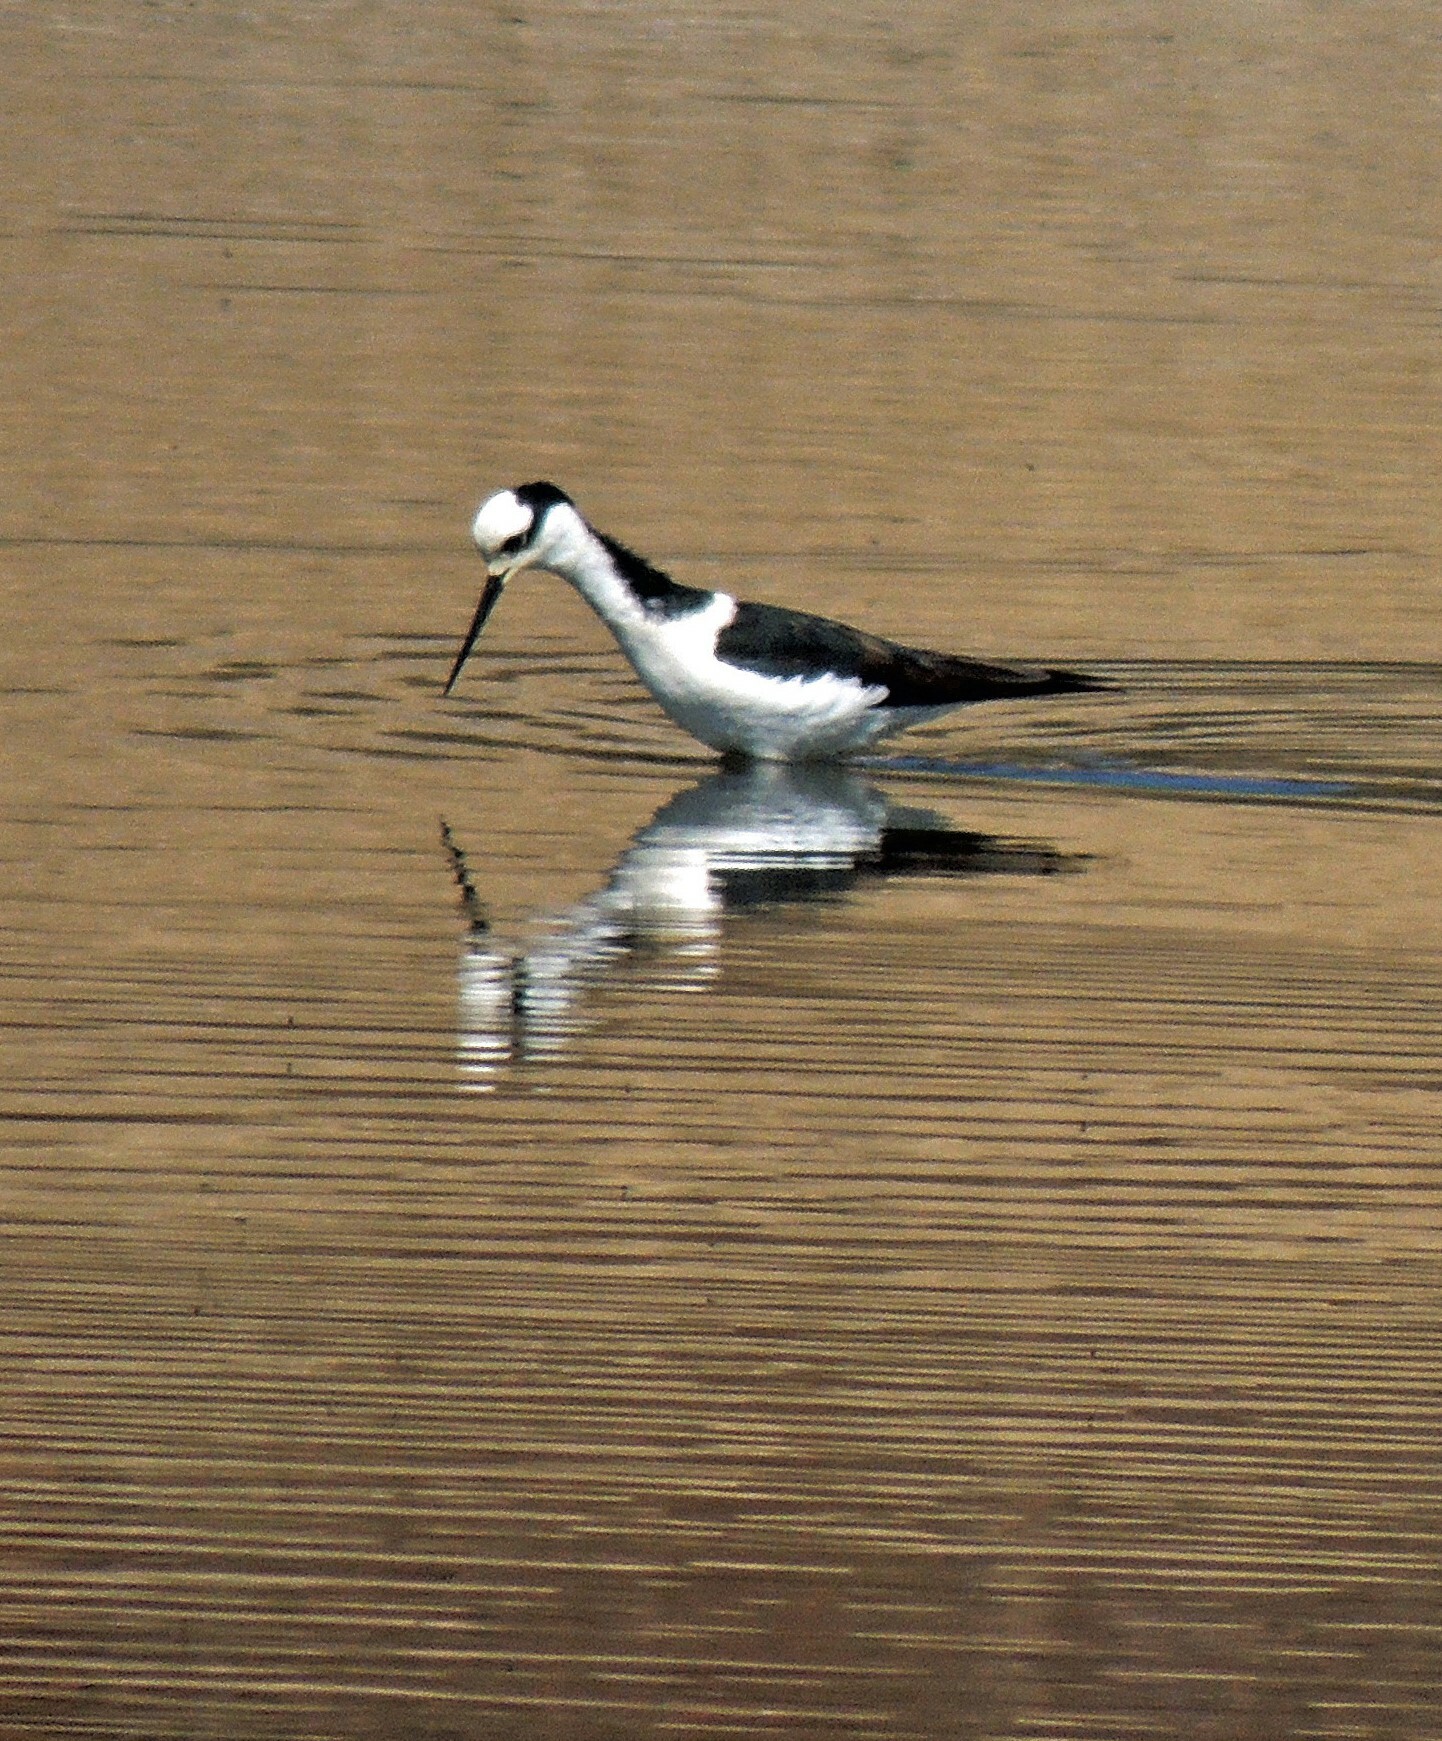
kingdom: Animalia
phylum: Chordata
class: Aves
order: Charadriiformes
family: Recurvirostridae
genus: Himantopus
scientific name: Himantopus mexicanus
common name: Black-necked stilt
